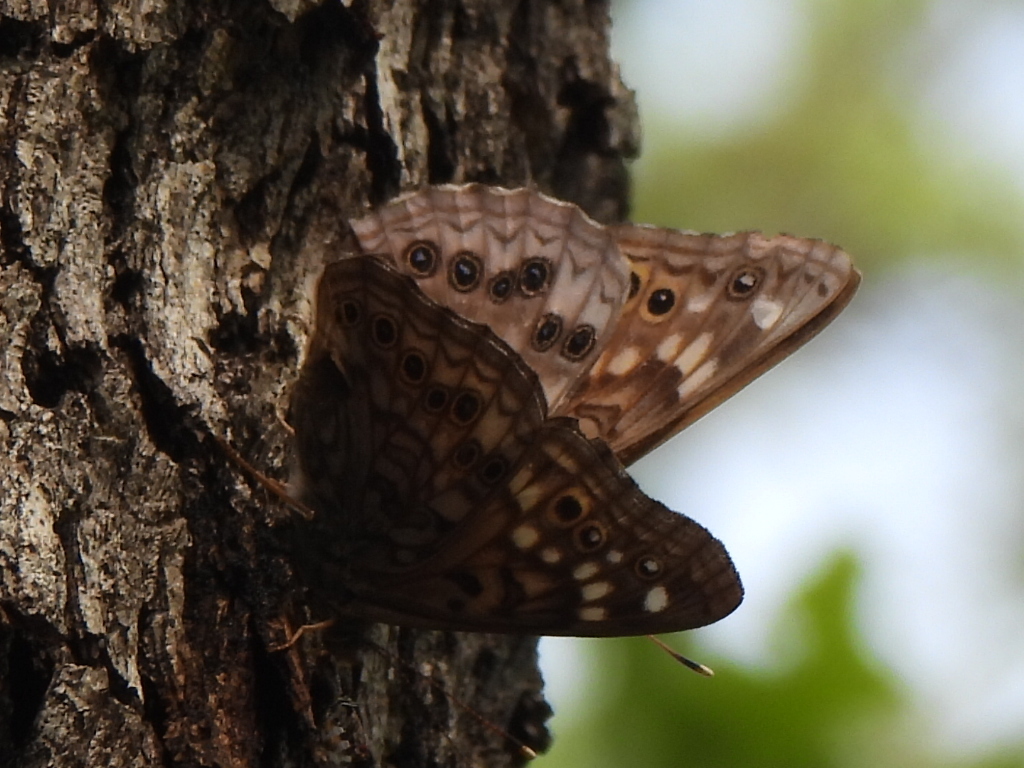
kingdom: Animalia
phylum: Arthropoda
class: Insecta
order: Lepidoptera
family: Nymphalidae
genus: Asterocampa
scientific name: Asterocampa celtis
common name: Hackberry emperor
